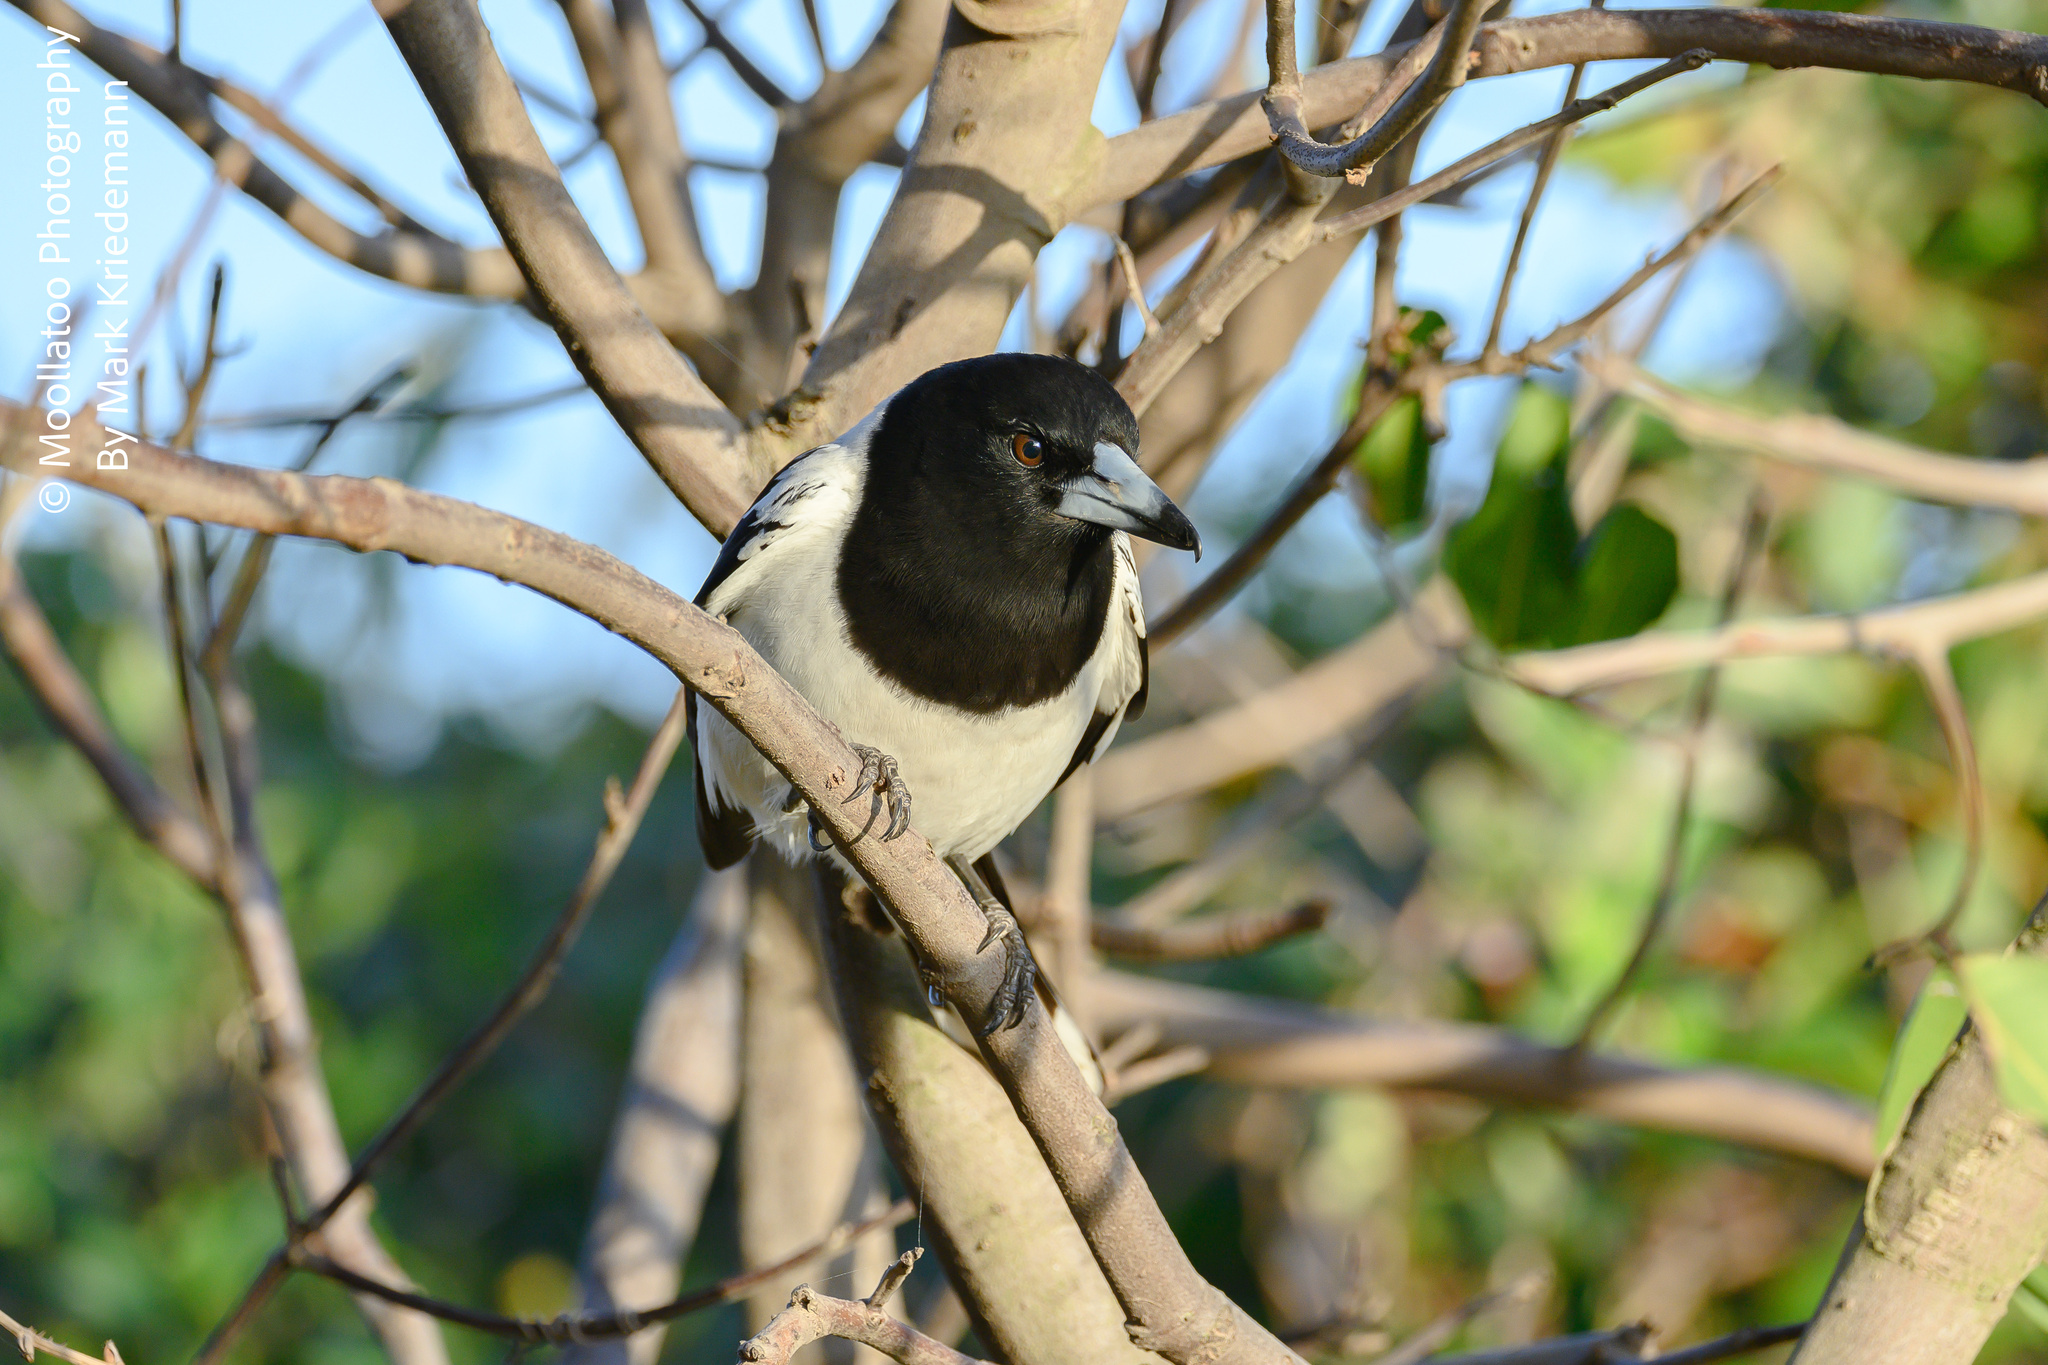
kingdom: Animalia
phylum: Chordata
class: Aves
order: Passeriformes
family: Cracticidae
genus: Cracticus
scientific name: Cracticus nigrogularis
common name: Pied butcherbird
